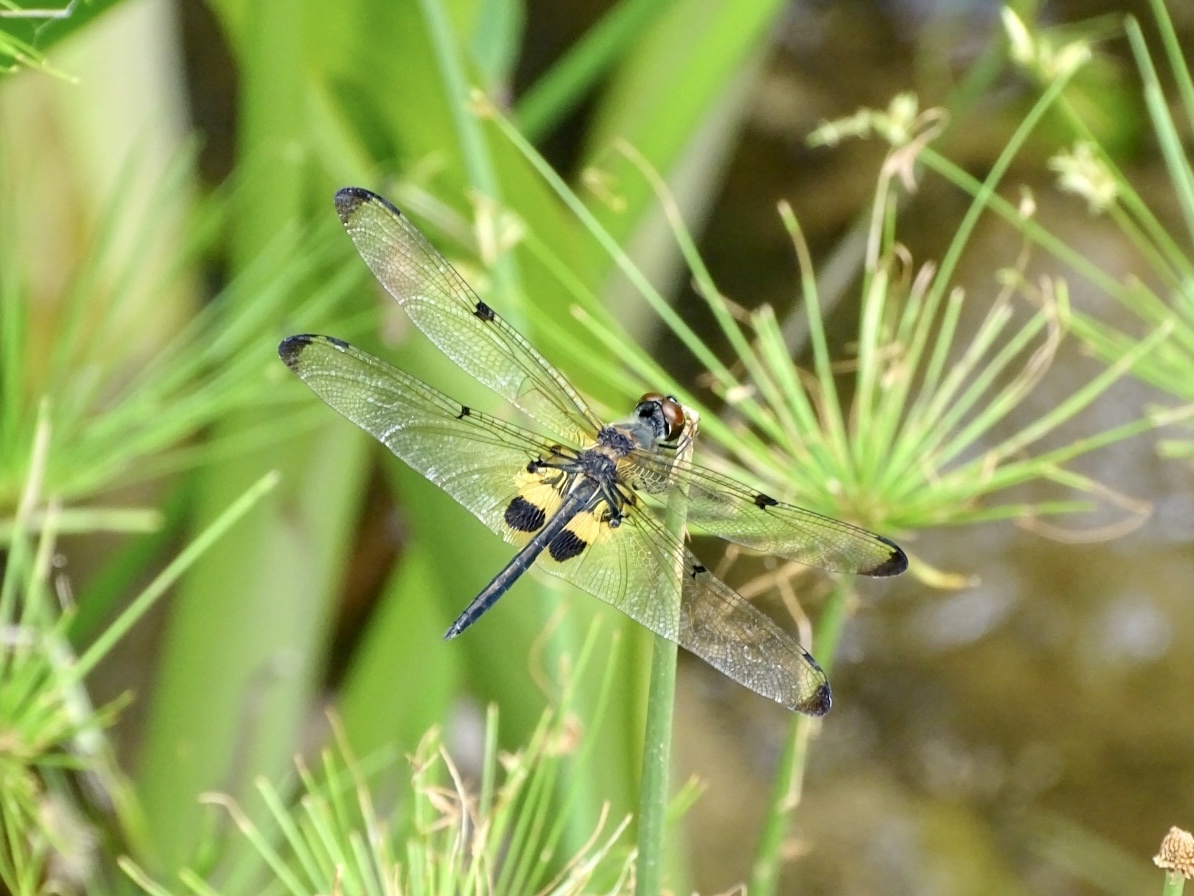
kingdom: Animalia
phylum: Arthropoda
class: Insecta
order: Odonata
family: Libellulidae
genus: Rhyothemis
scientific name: Rhyothemis phyllis
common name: Yellow-barred flutterer
